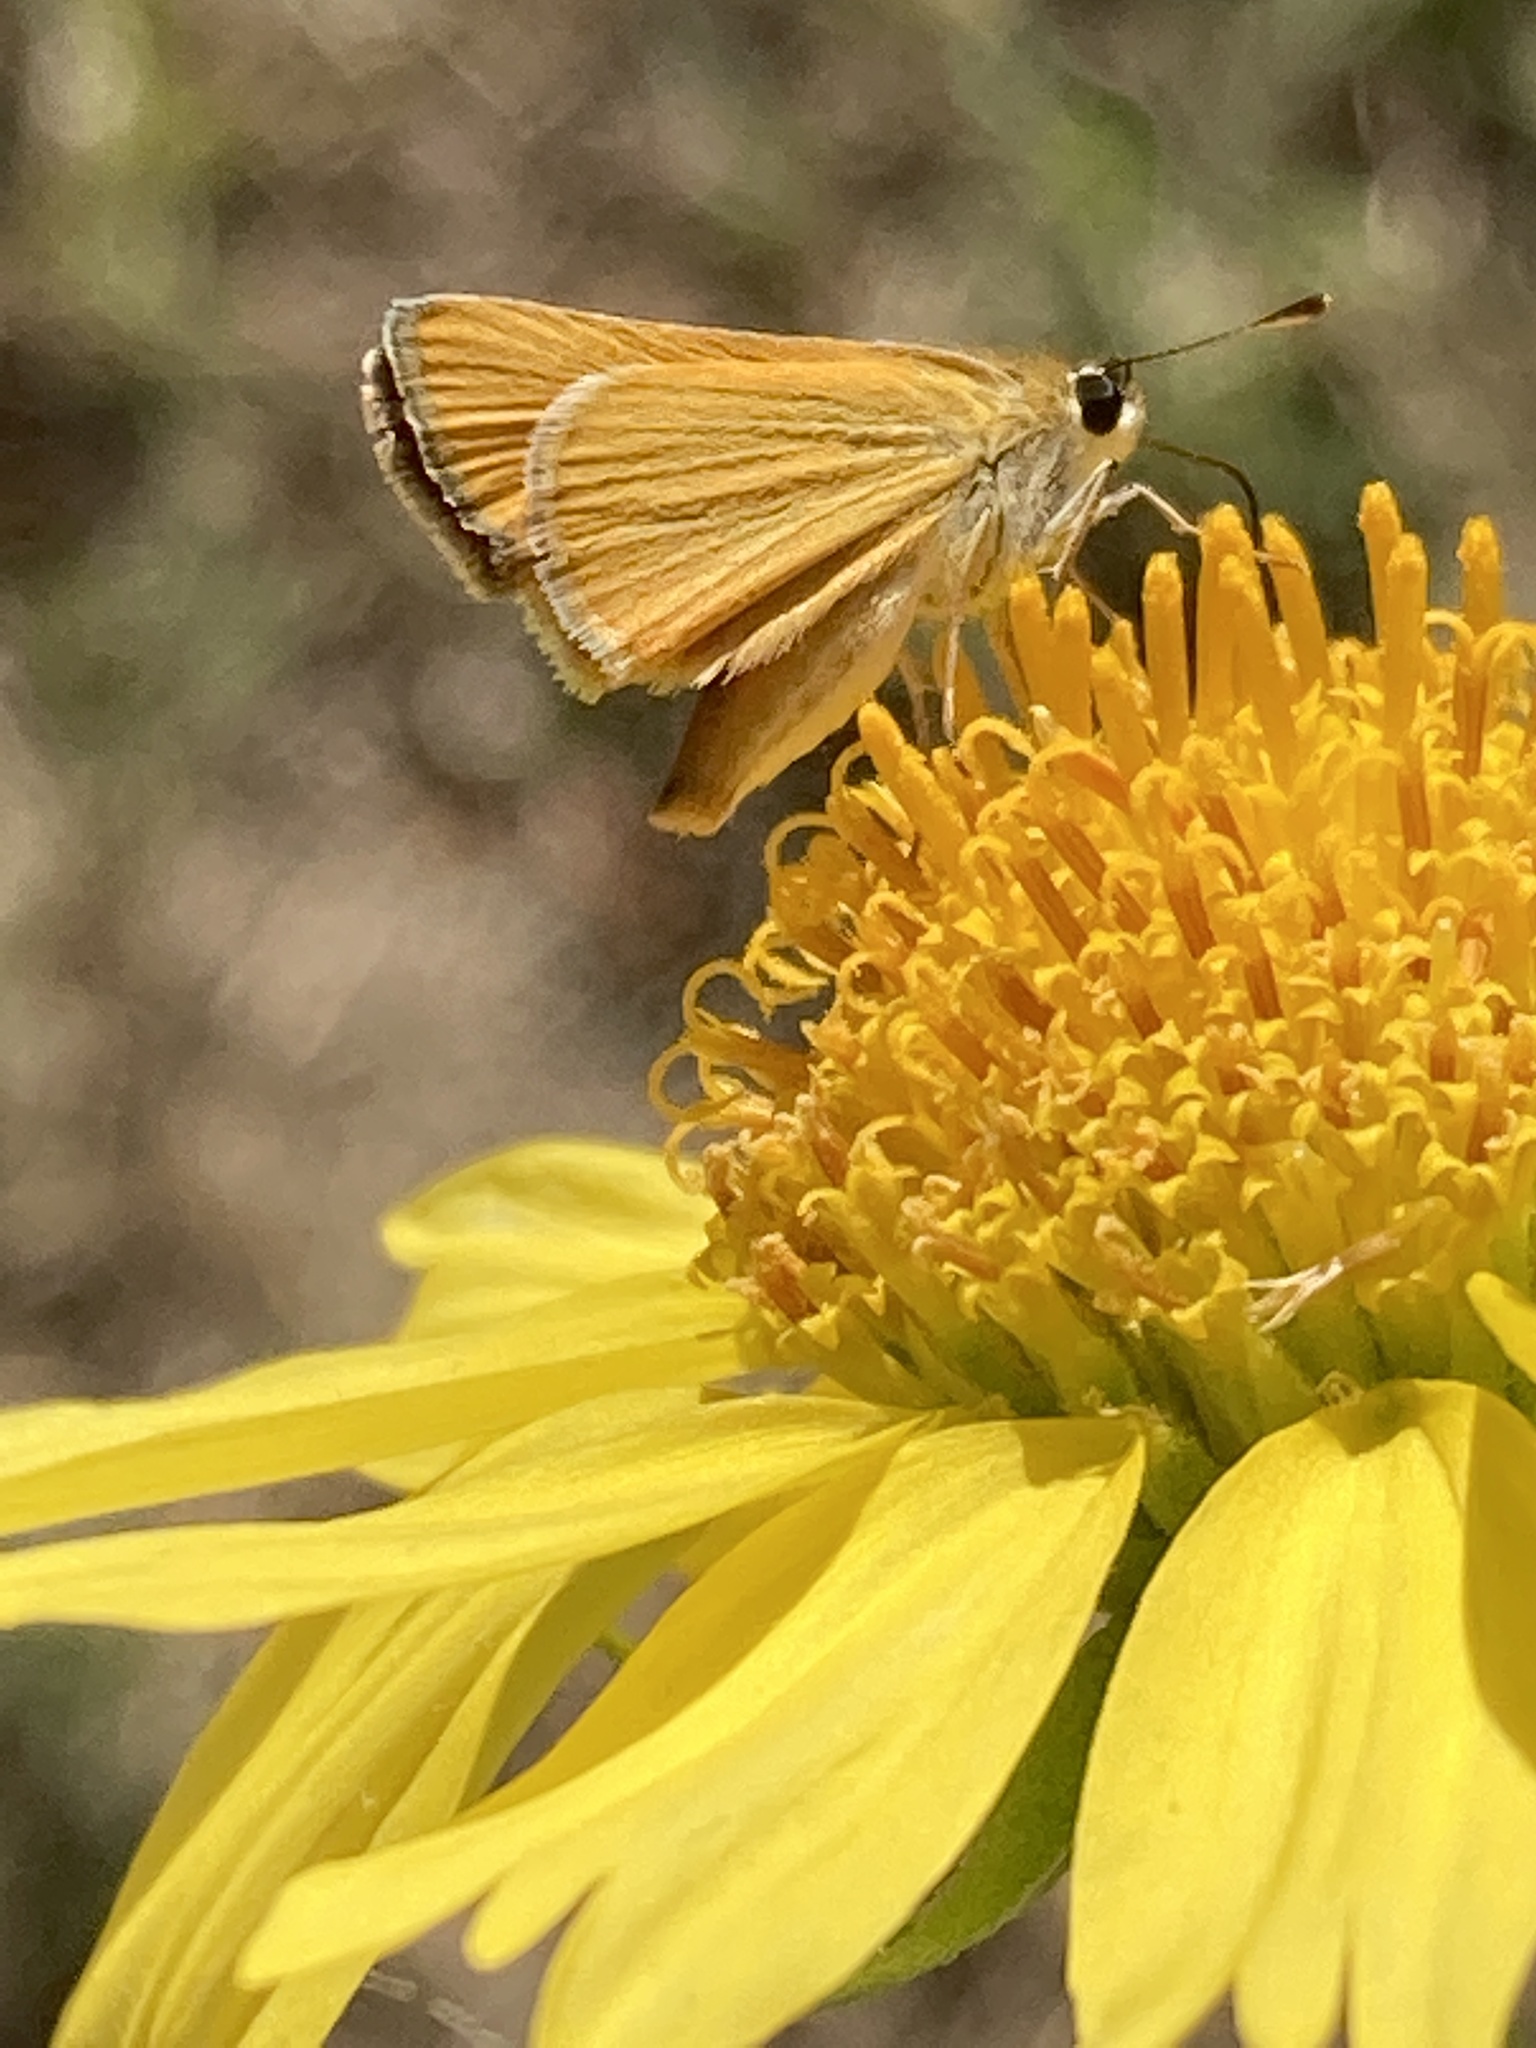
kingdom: Animalia
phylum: Arthropoda
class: Insecta
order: Lepidoptera
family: Hesperiidae
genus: Copaeodes
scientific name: Copaeodes aurantiaca
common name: Orange skipperling
